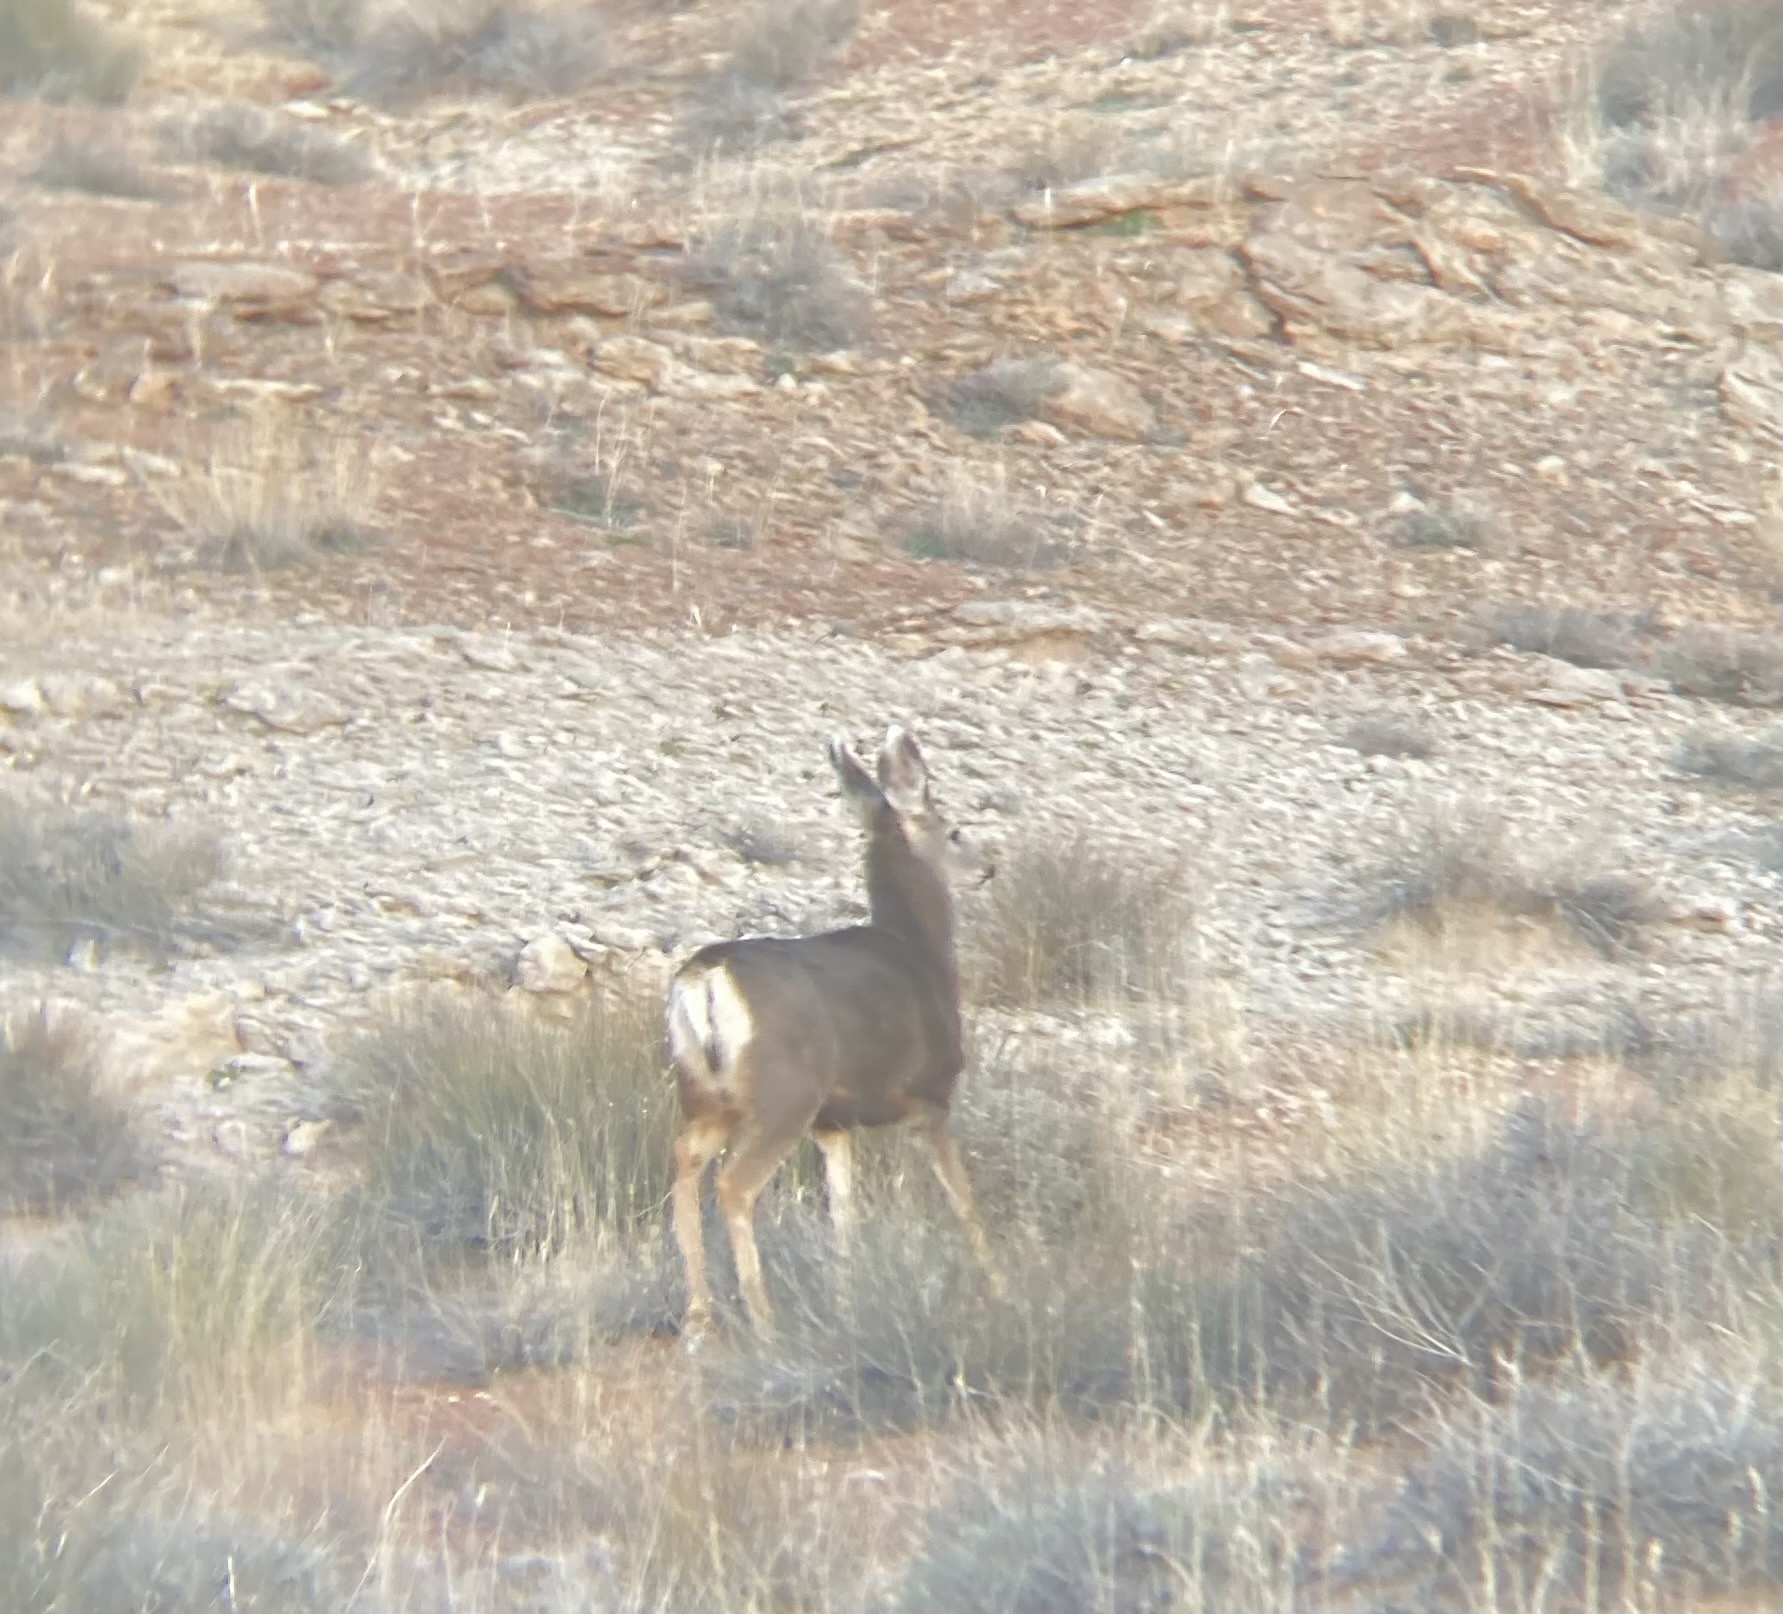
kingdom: Animalia
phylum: Chordata
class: Mammalia
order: Artiodactyla
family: Cervidae
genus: Odocoileus
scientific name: Odocoileus hemionus
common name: Mule deer
